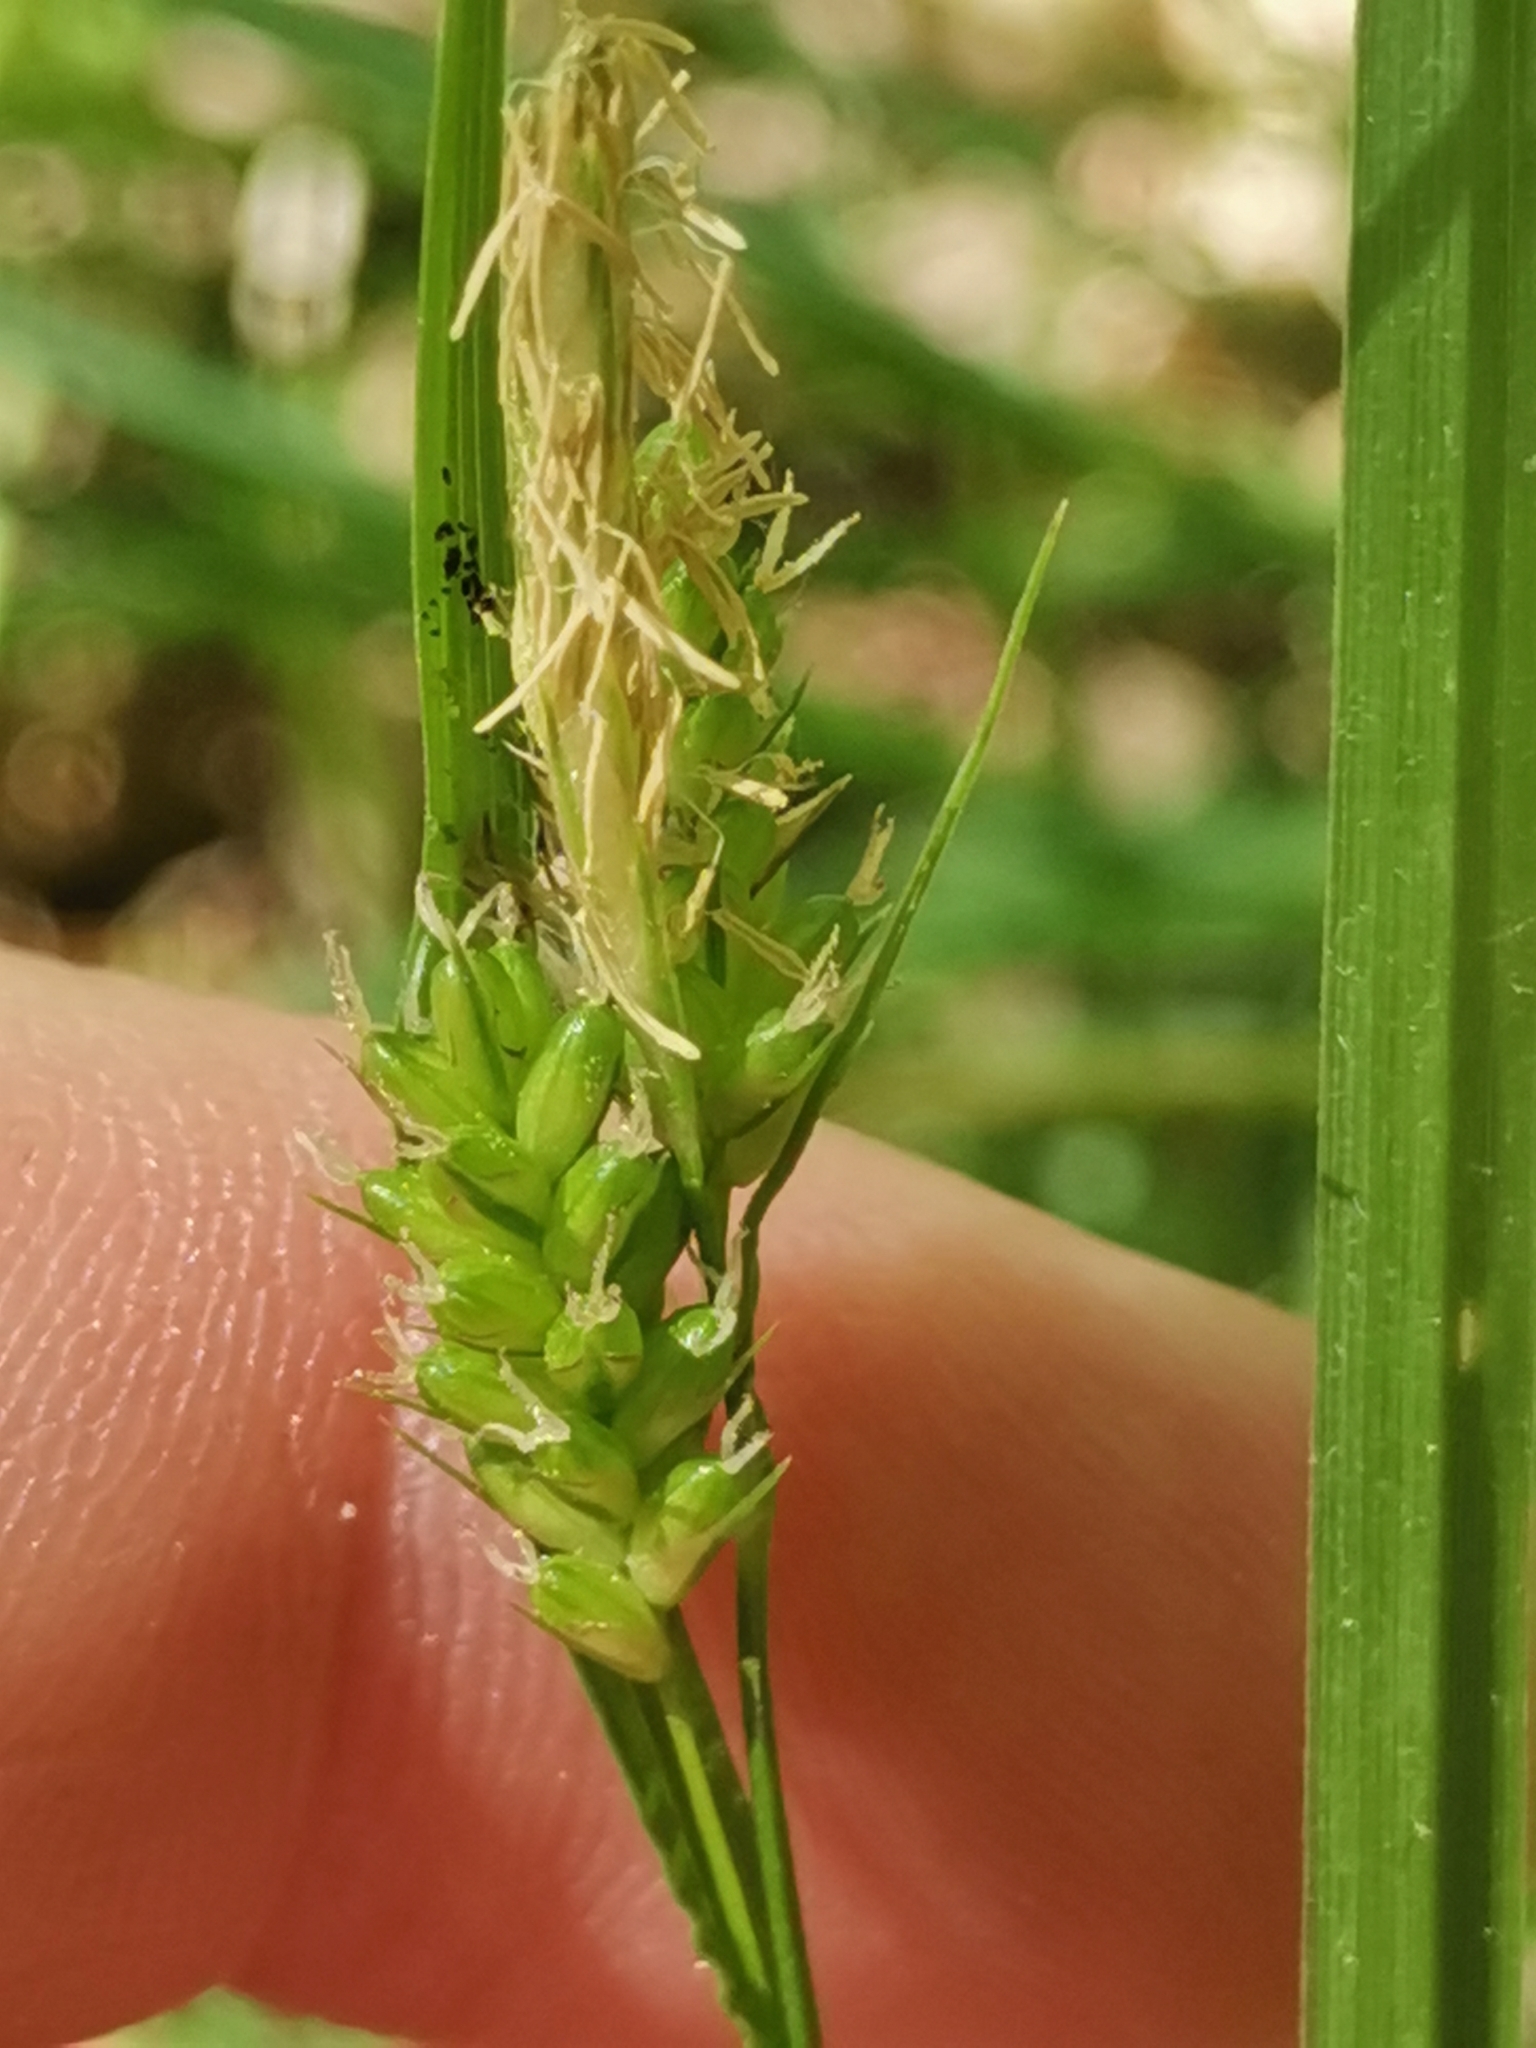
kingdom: Plantae
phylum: Tracheophyta
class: Liliopsida
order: Poales
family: Cyperaceae
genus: Carex
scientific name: Carex pallescens
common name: Pale sedge
